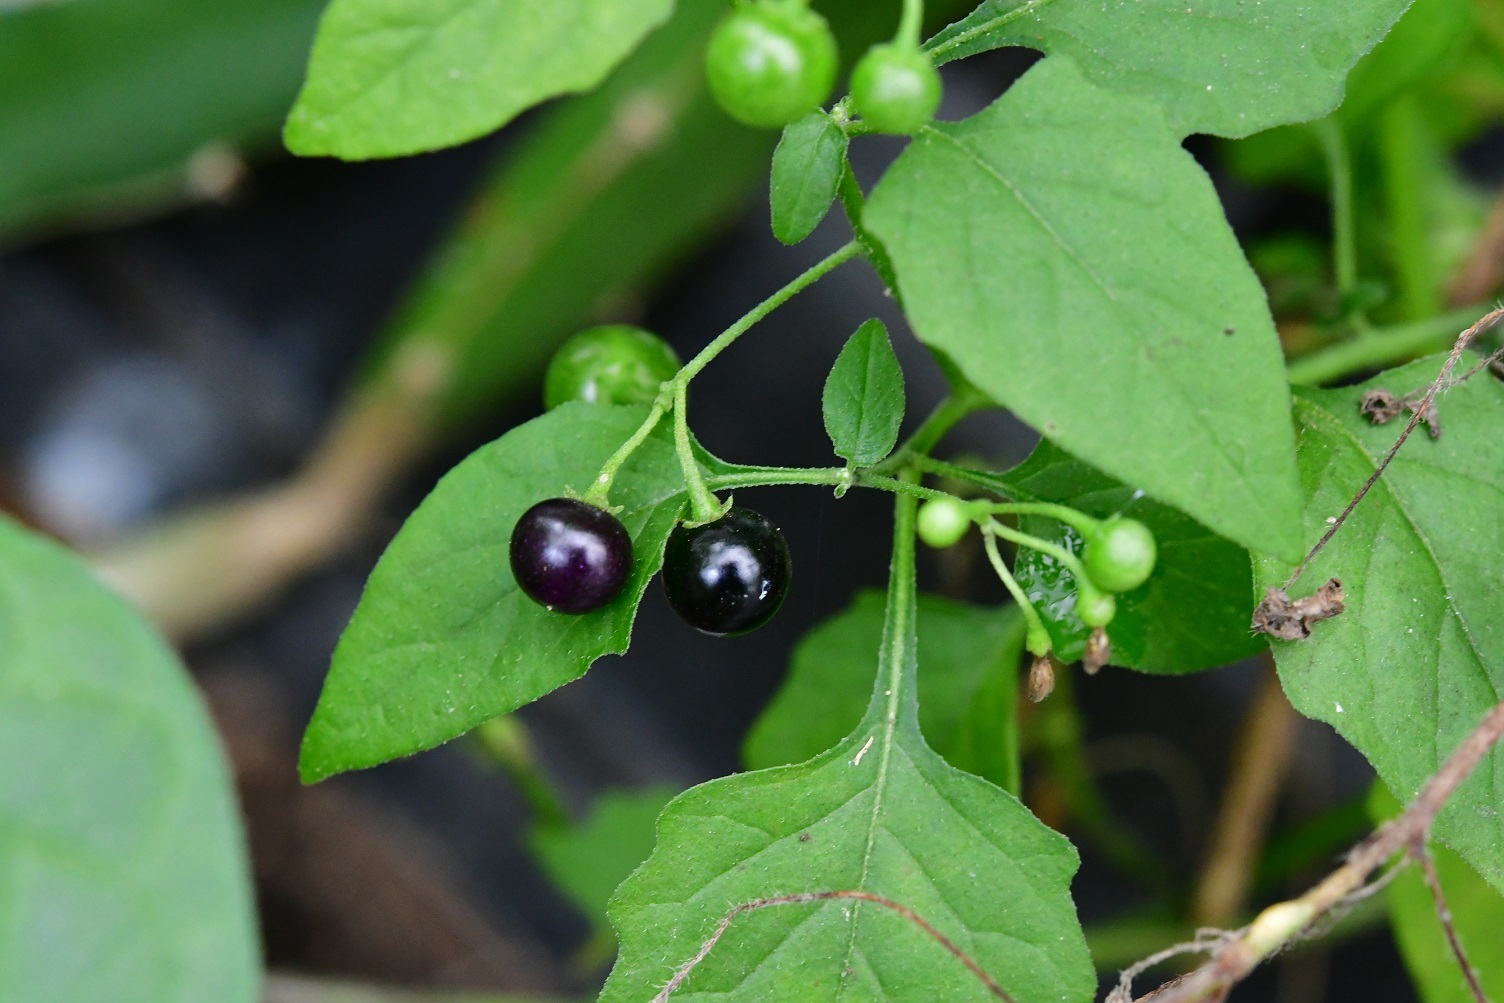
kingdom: Plantae
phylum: Tracheophyta
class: Magnoliopsida
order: Solanales
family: Solanaceae
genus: Solanum
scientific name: Solanum americanum
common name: American black nightshade
